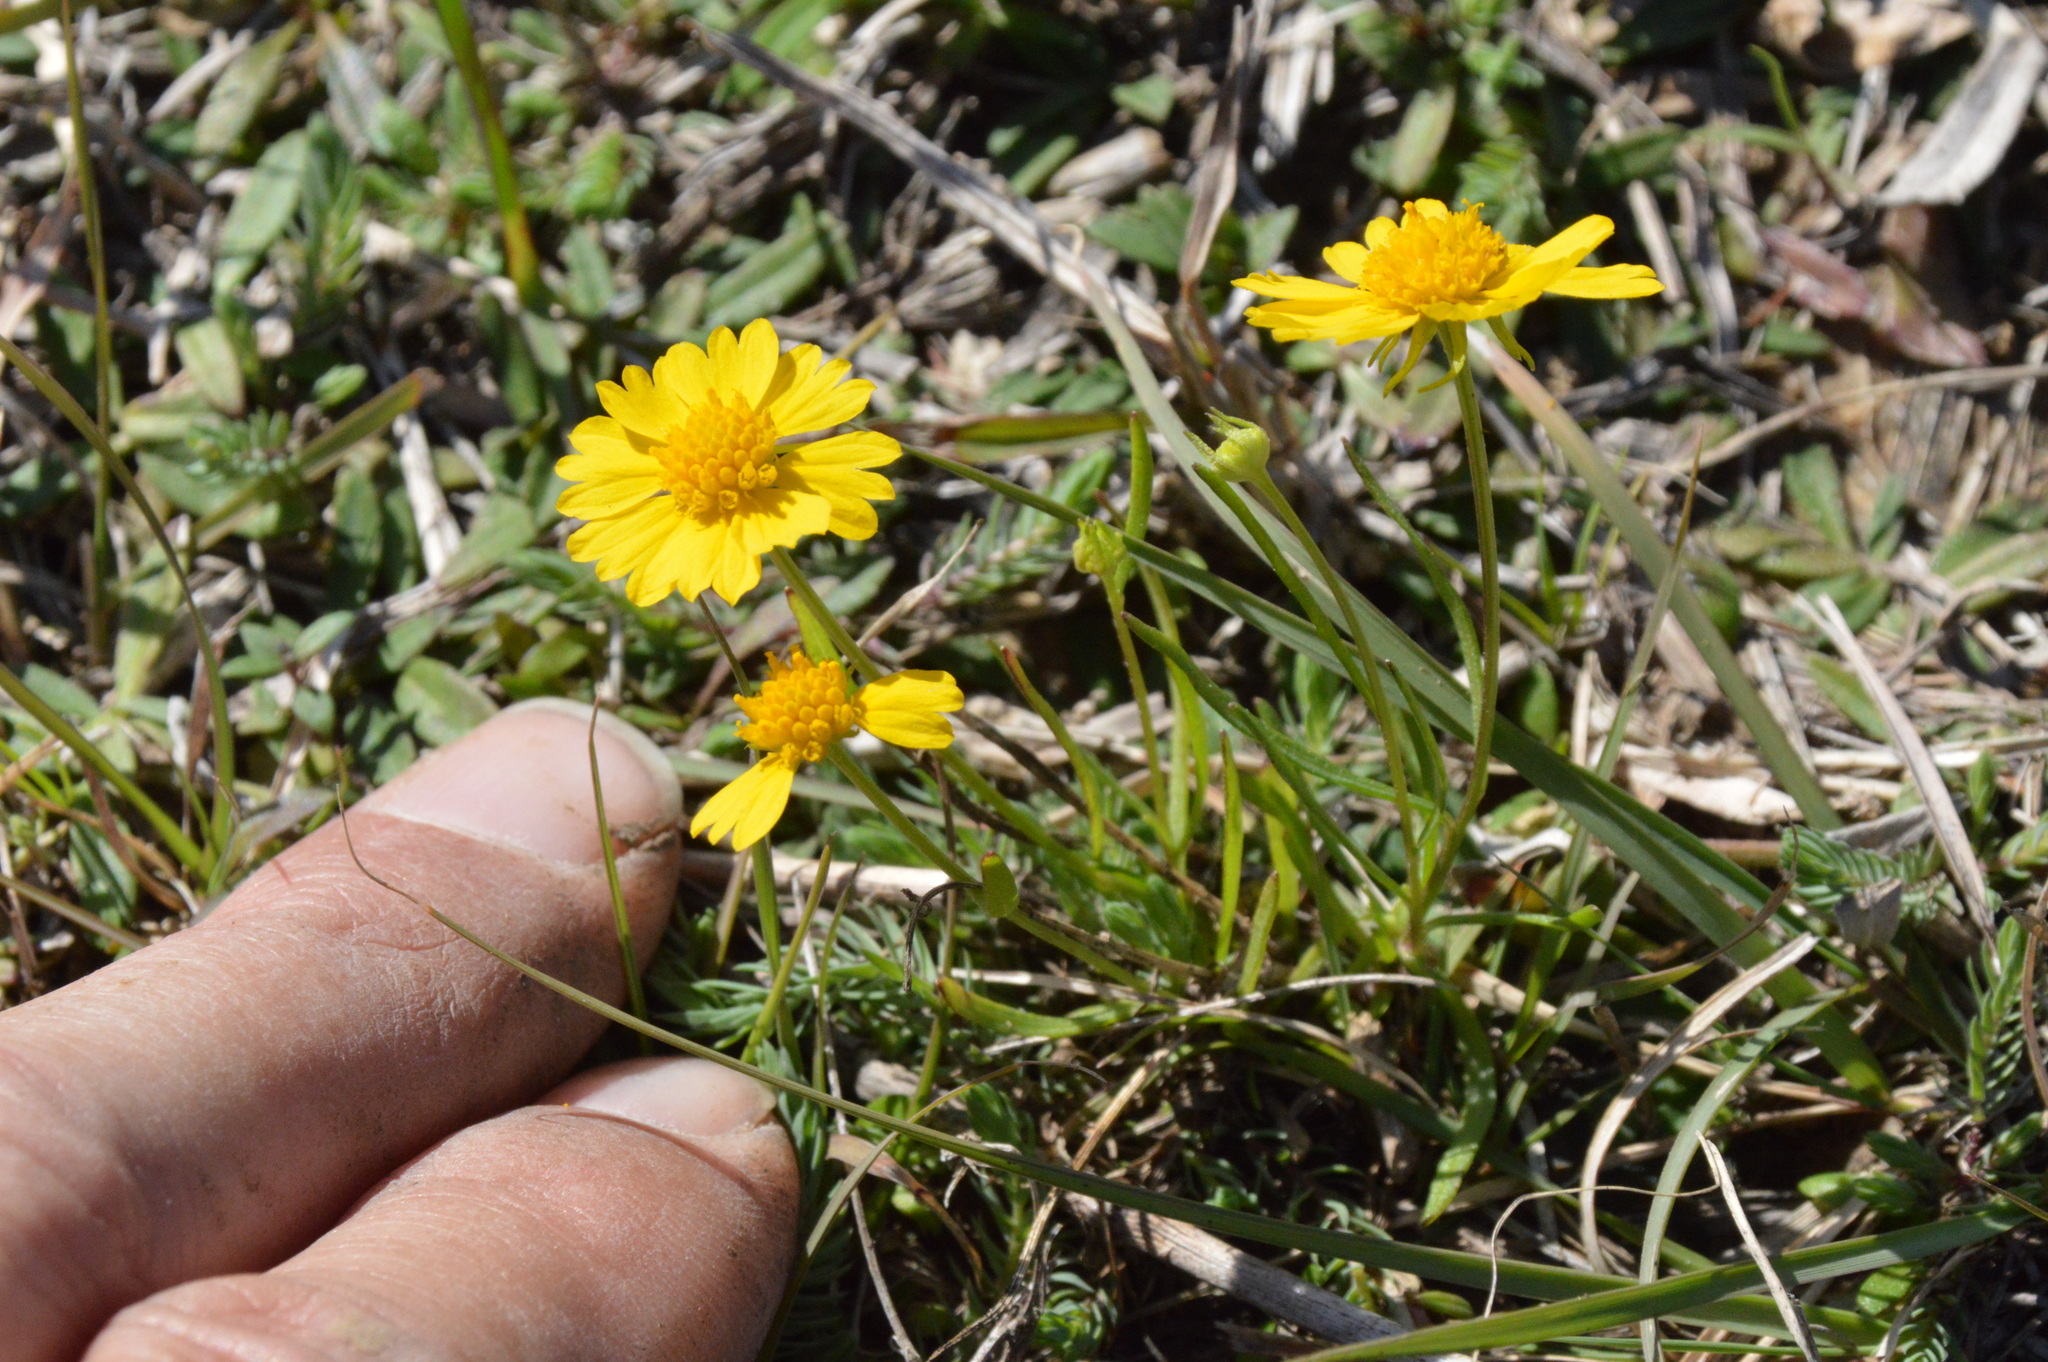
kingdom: Plantae
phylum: Tracheophyta
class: Magnoliopsida
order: Asterales
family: Asteraceae
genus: Helenium
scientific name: Helenium amarum
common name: Bitter sneezeweed
